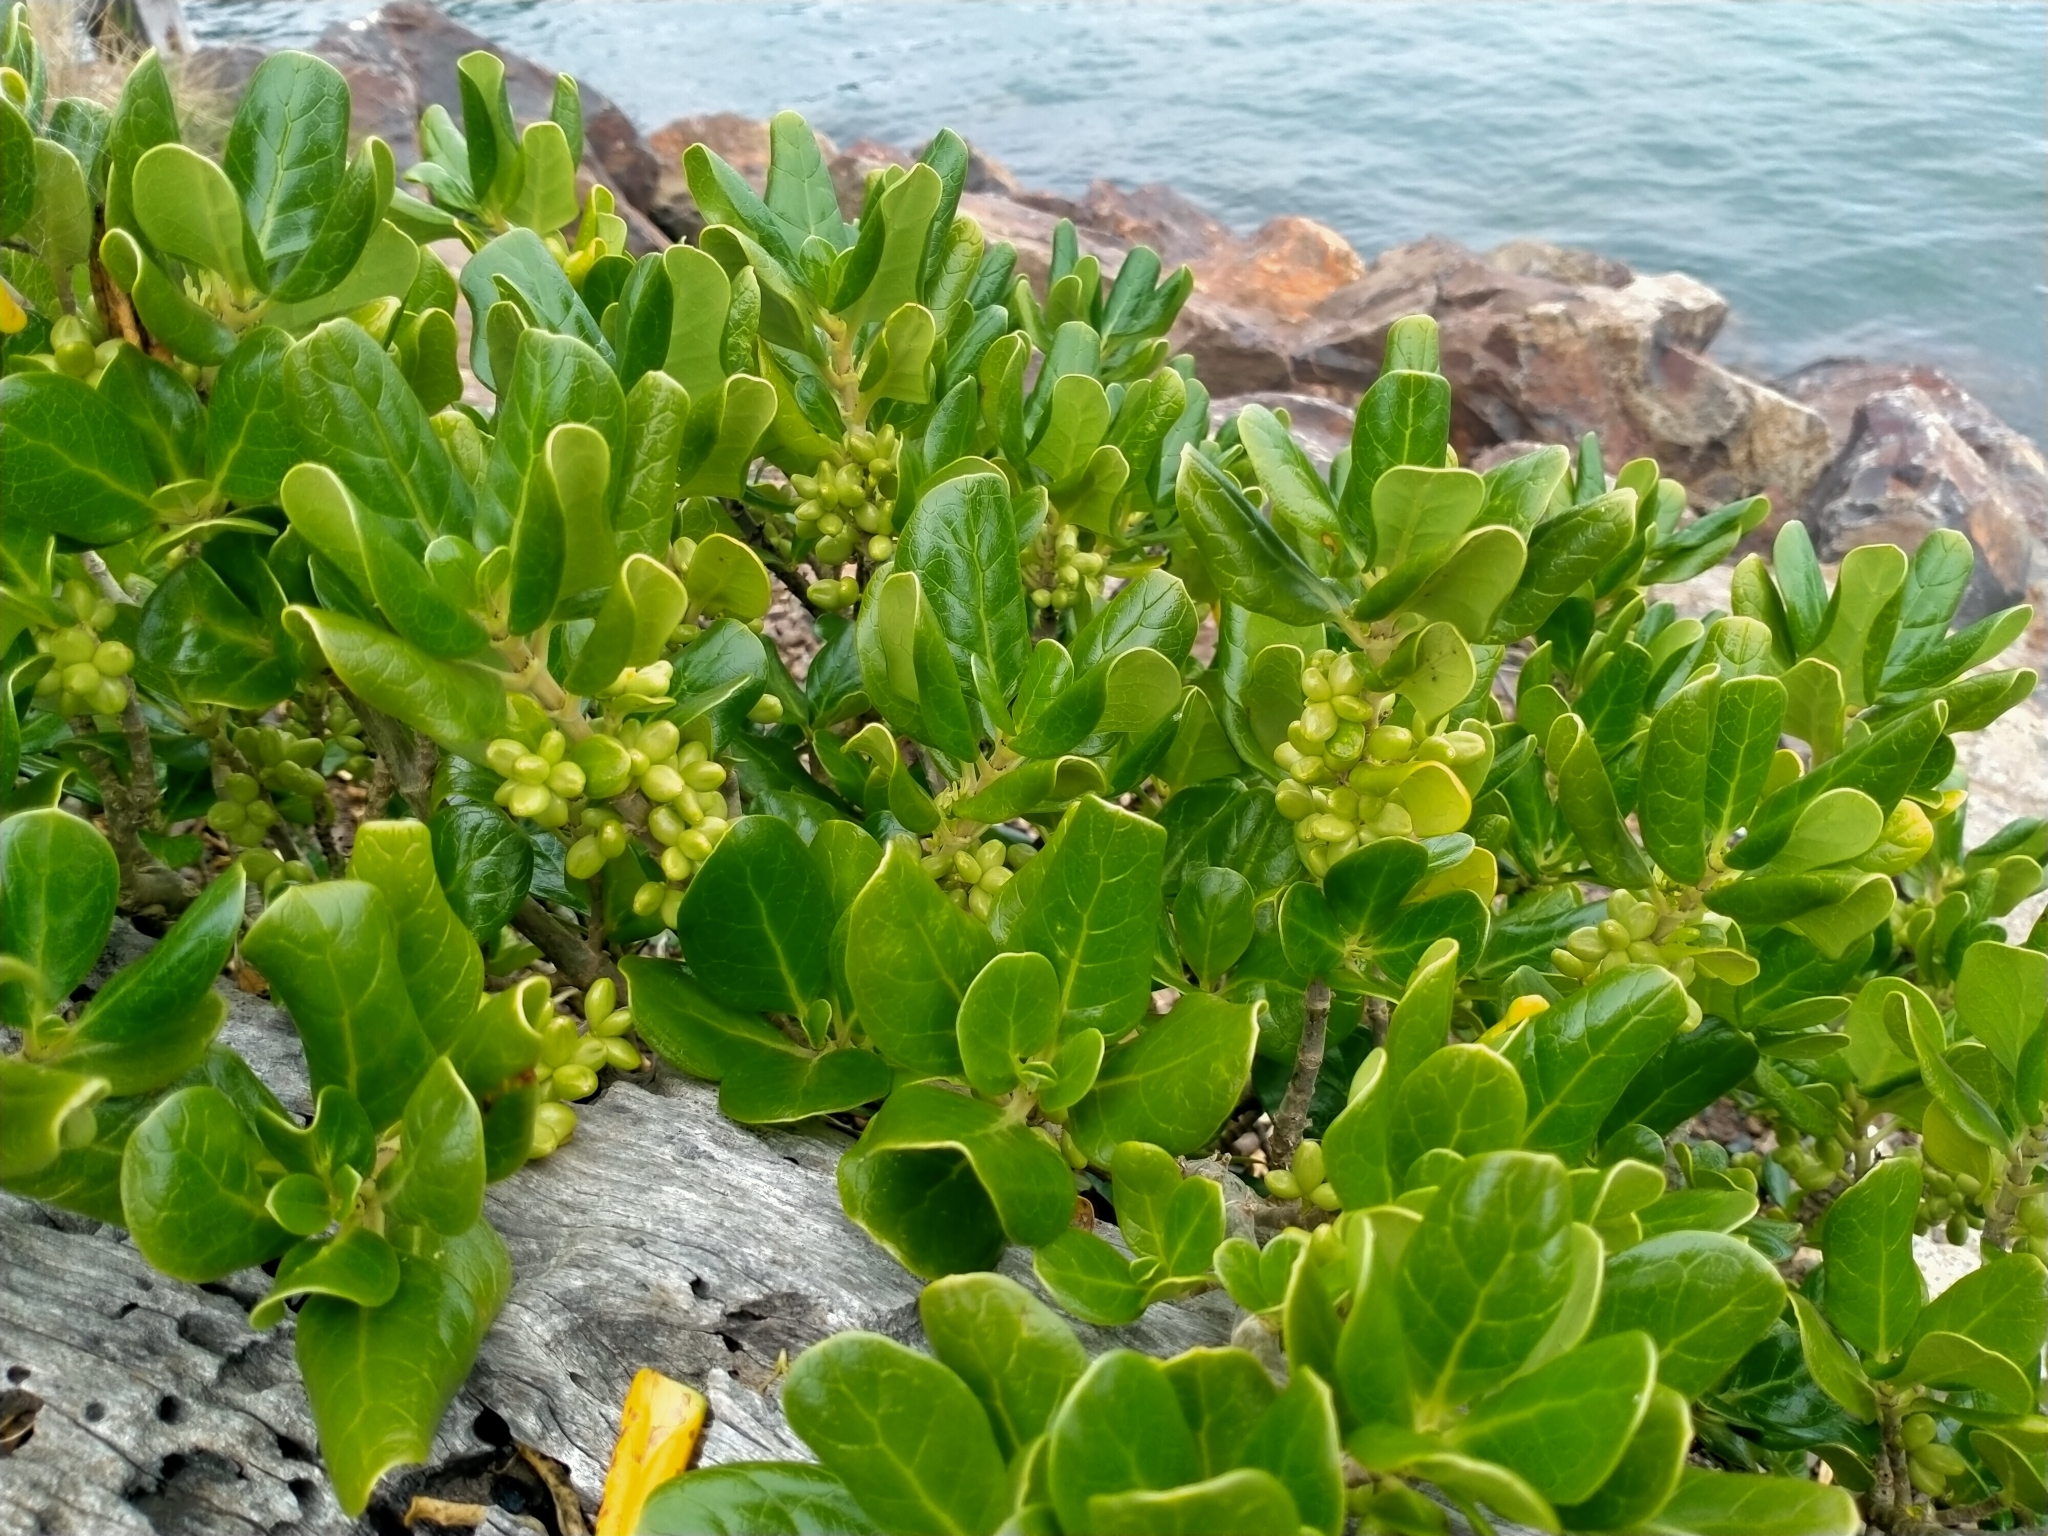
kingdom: Plantae
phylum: Tracheophyta
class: Magnoliopsida
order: Gentianales
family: Rubiaceae
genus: Coprosma
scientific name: Coprosma repens
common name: Tree bedstraw
